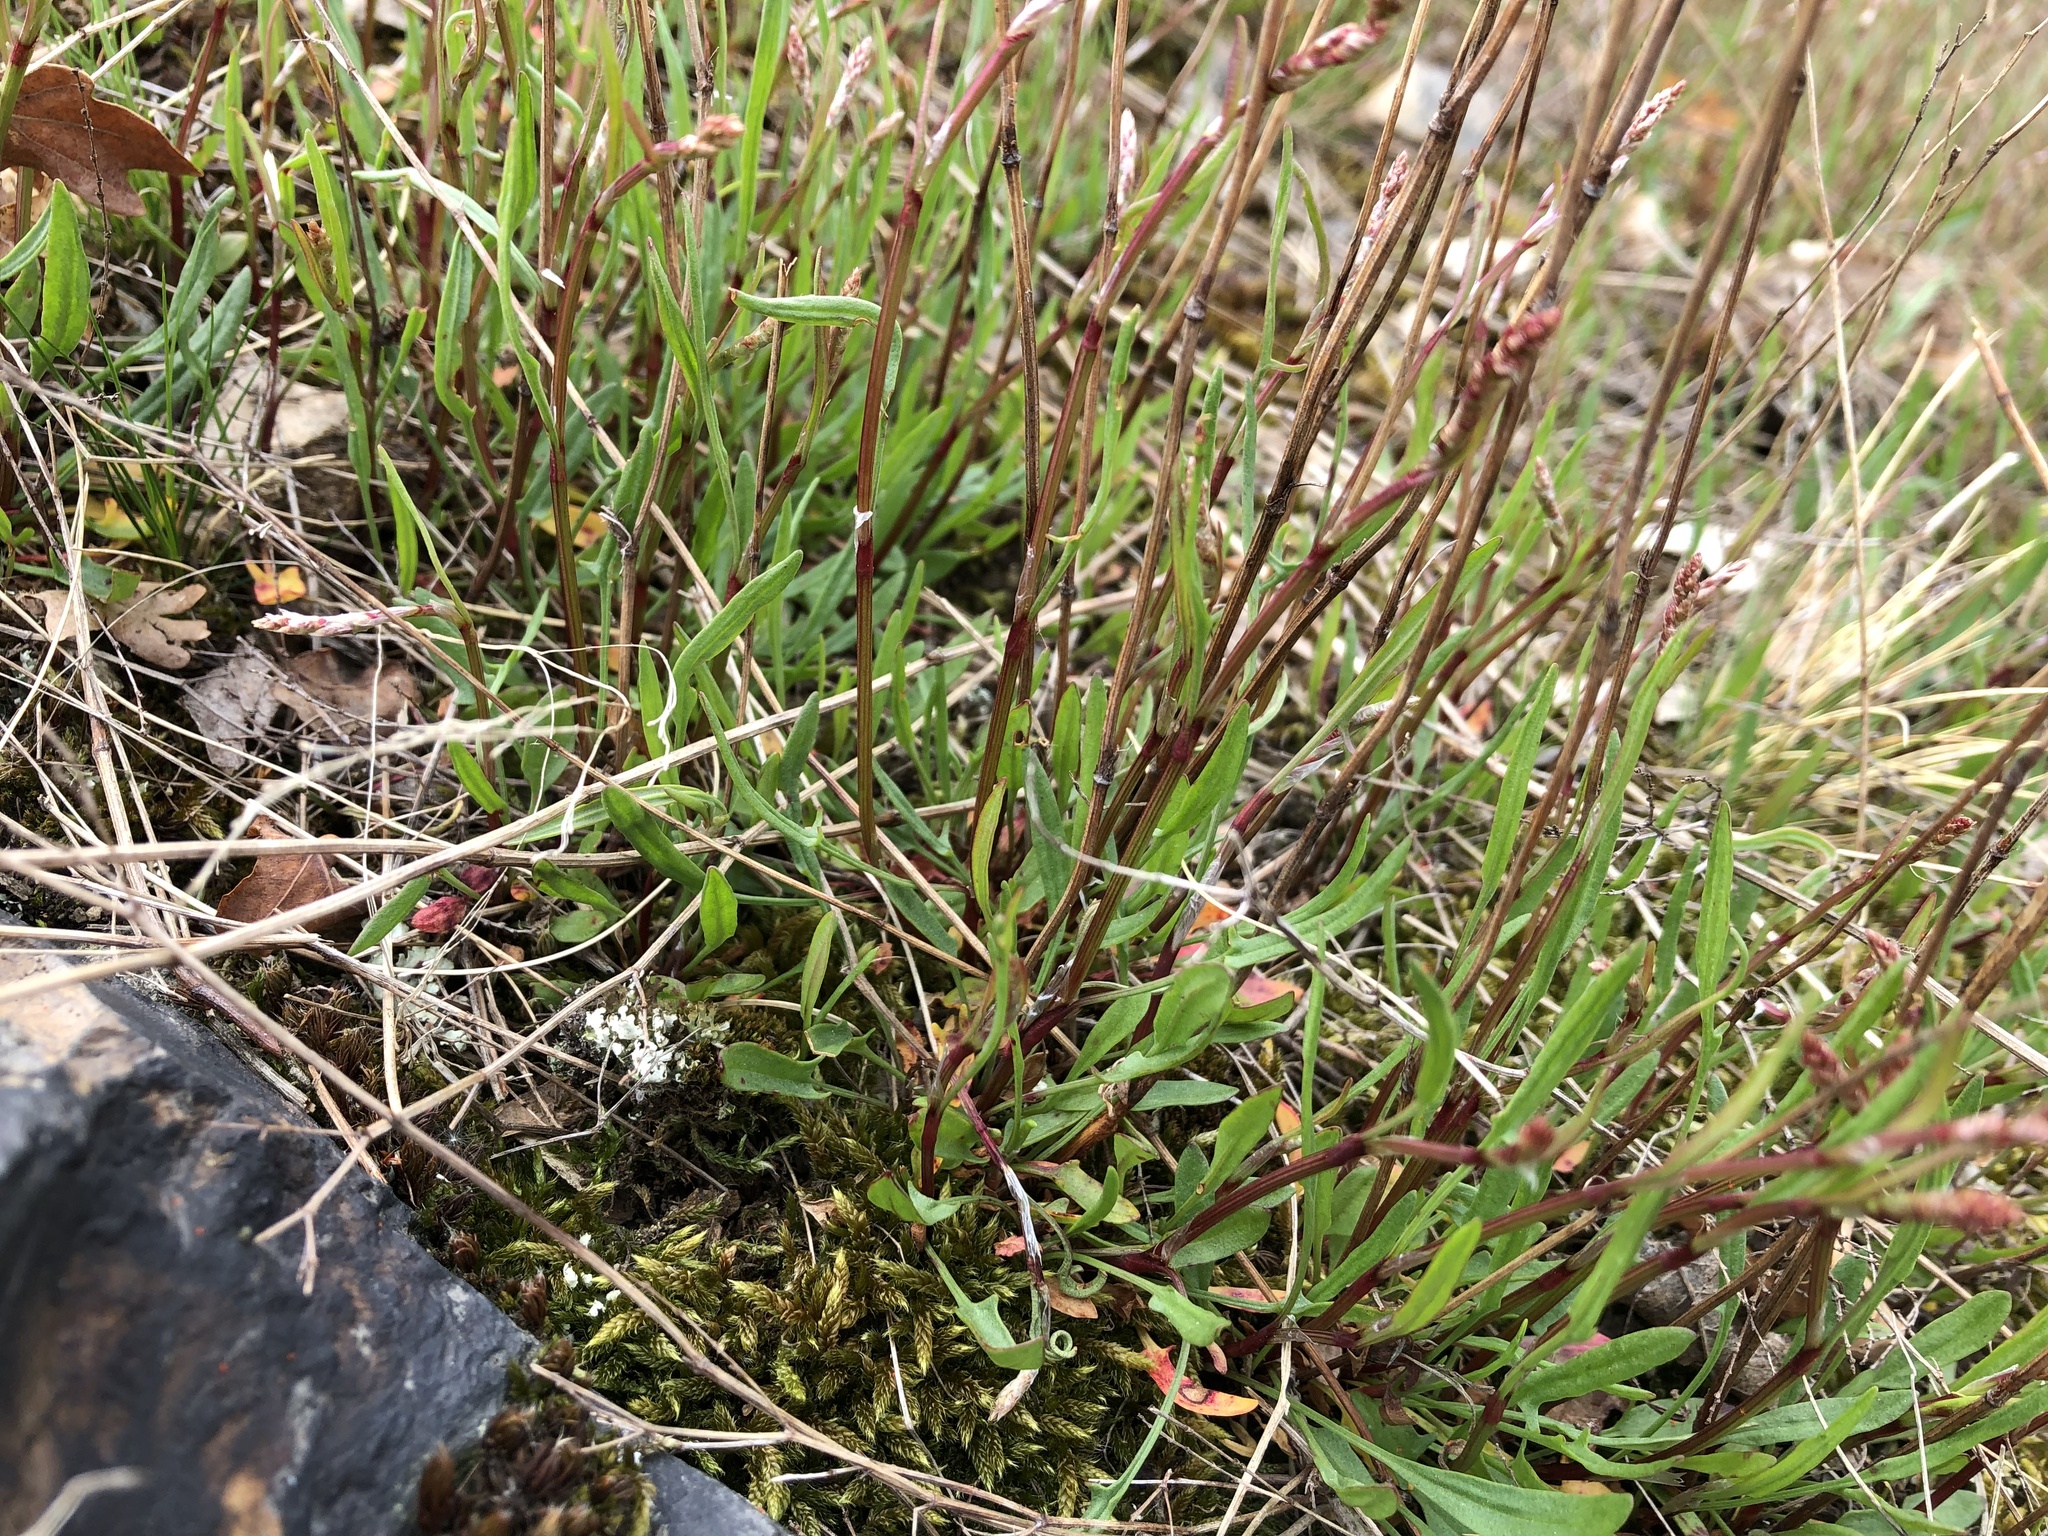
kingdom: Plantae
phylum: Tracheophyta
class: Magnoliopsida
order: Caryophyllales
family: Polygonaceae
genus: Rumex
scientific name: Rumex acetosella
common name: Common sheep sorrel
